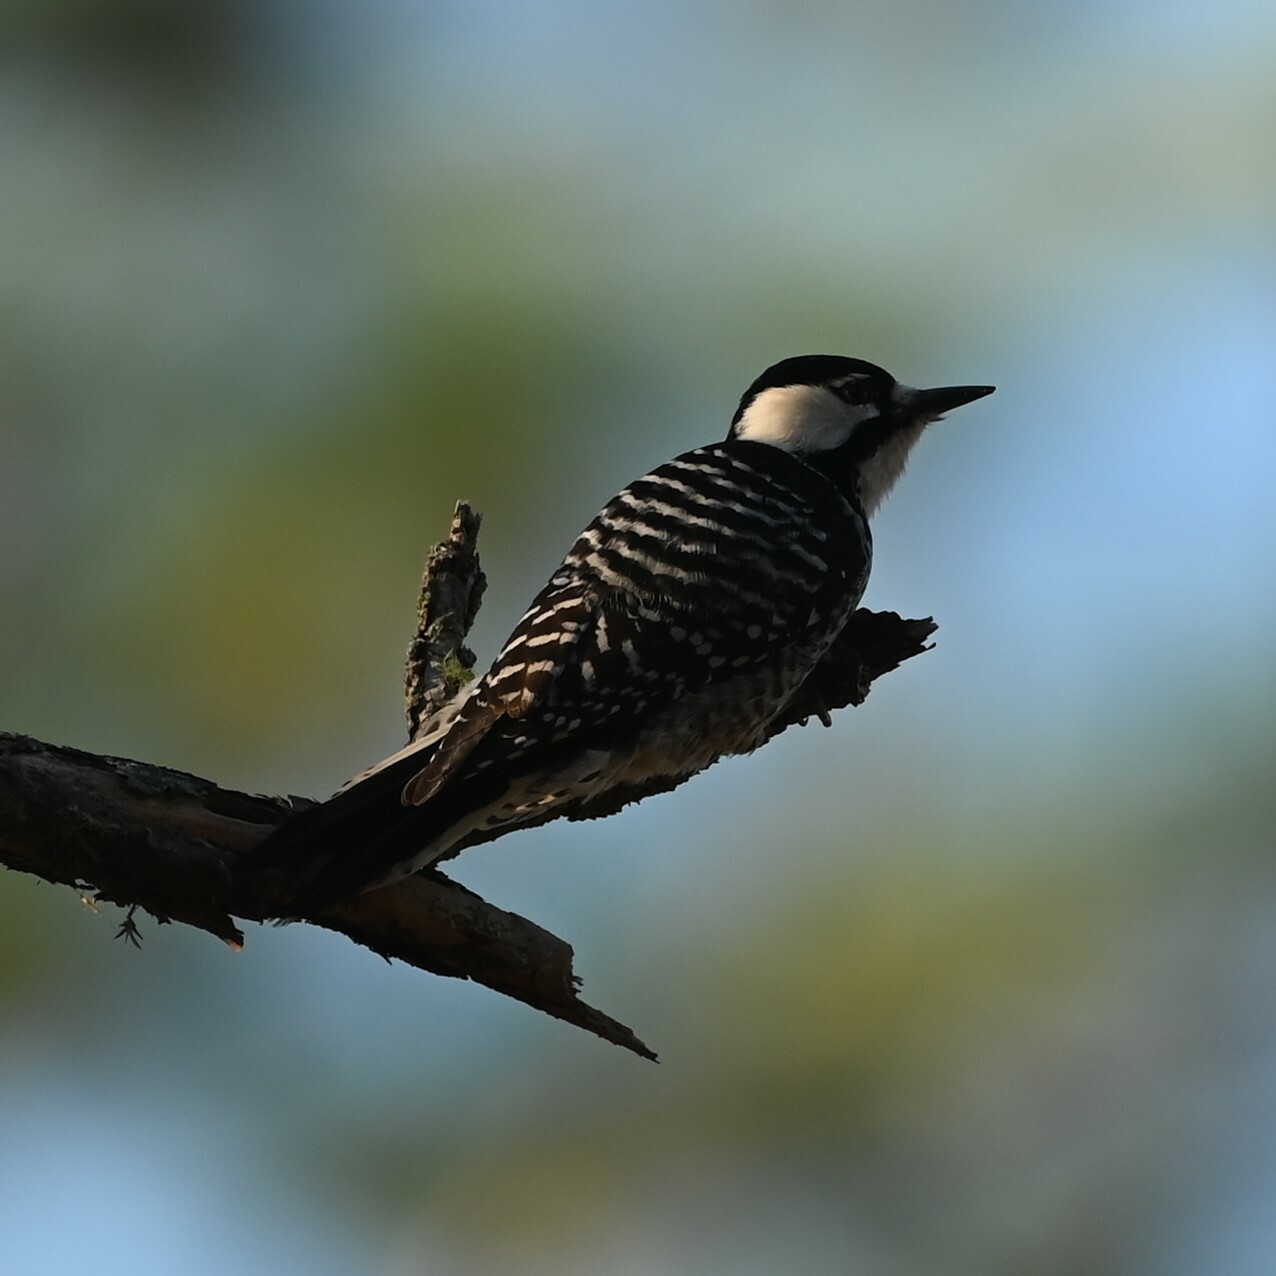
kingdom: Animalia
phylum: Chordata
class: Aves
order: Piciformes
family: Picidae
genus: Leuconotopicus
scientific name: Leuconotopicus borealis
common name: Red-cockaded woodpecker
